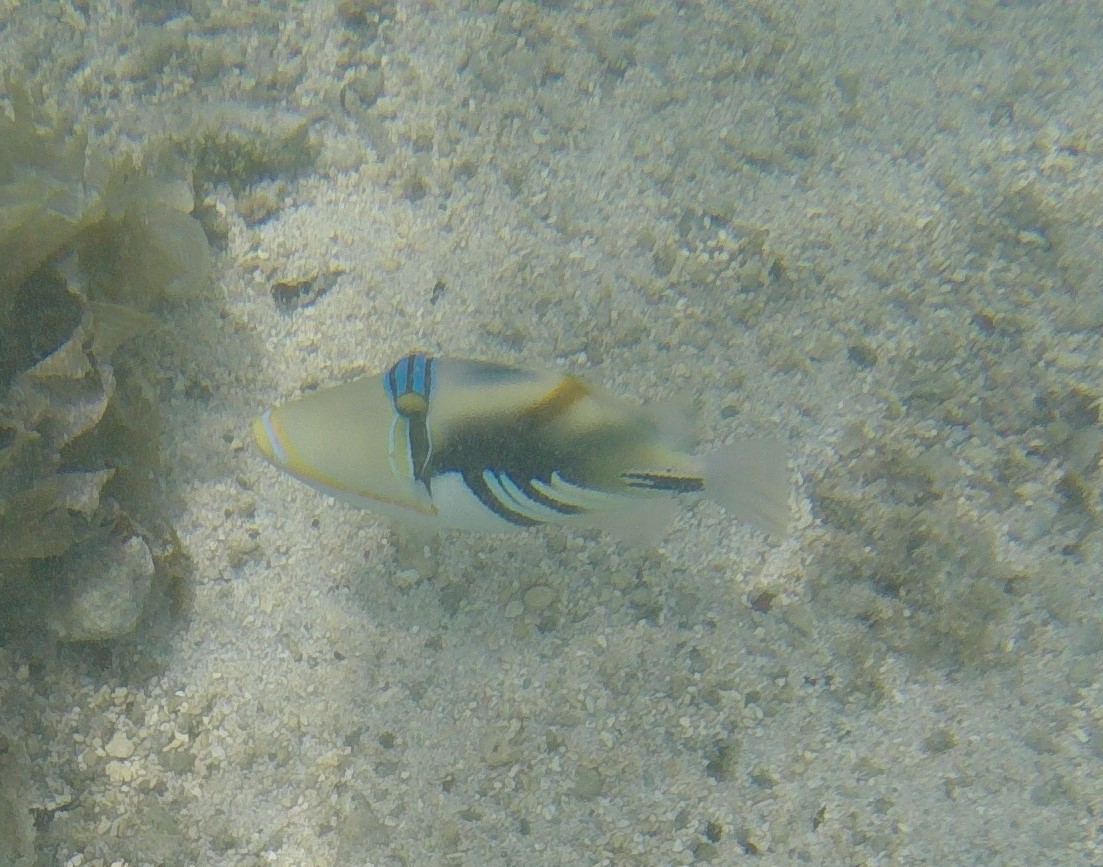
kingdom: Animalia
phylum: Chordata
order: Tetraodontiformes
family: Balistidae
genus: Rhinecanthus
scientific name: Rhinecanthus aculeatus
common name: White-banded triggerfish
